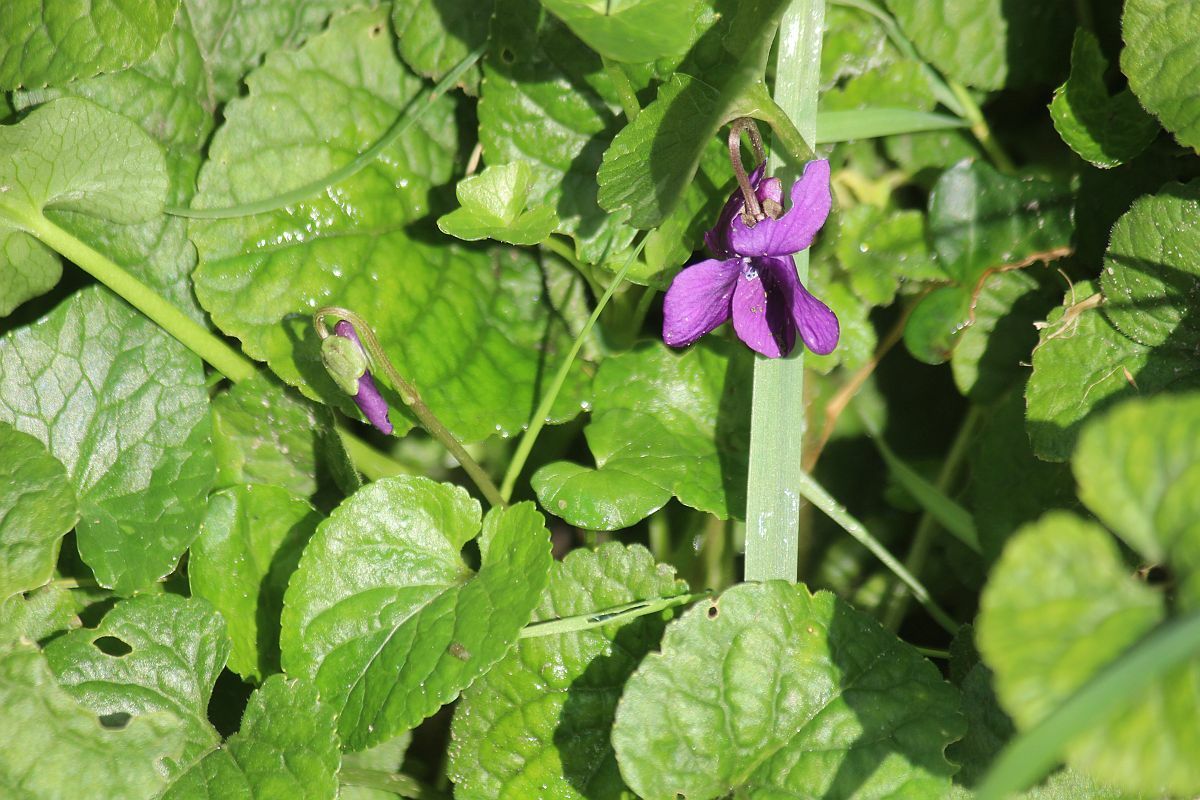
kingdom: Plantae
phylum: Tracheophyta
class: Magnoliopsida
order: Malpighiales
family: Violaceae
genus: Viola
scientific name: Viola odorata
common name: Sweet violet
